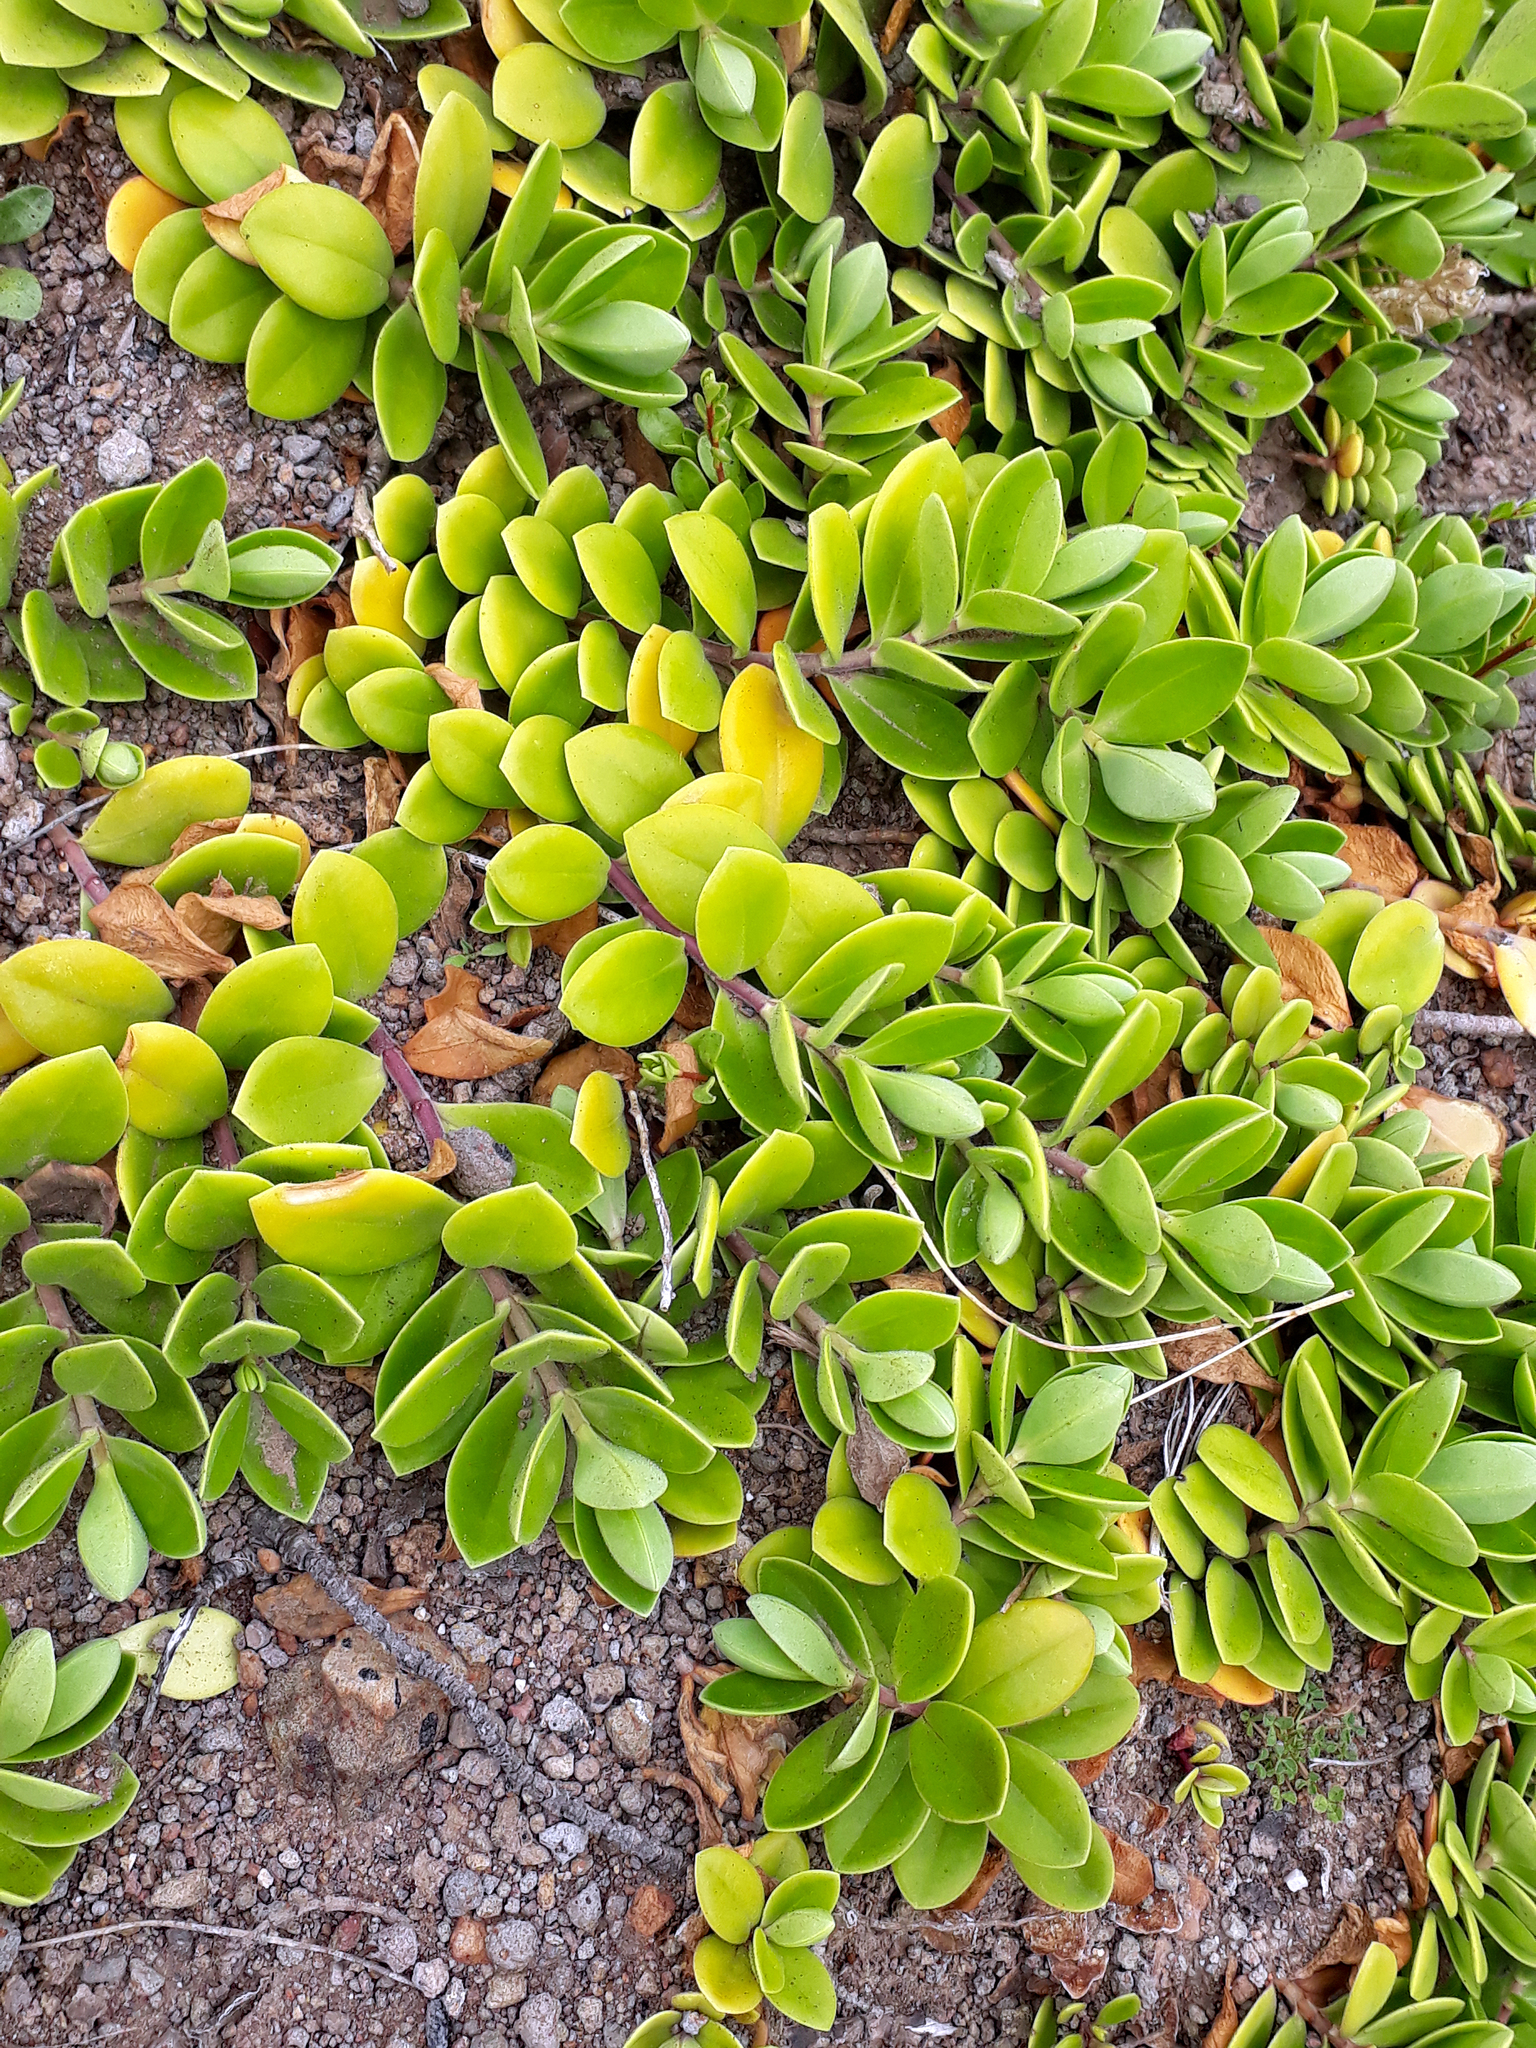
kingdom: Plantae
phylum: Tracheophyta
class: Magnoliopsida
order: Lamiales
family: Plantaginaceae
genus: Veronica
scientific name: Veronica chathamica
